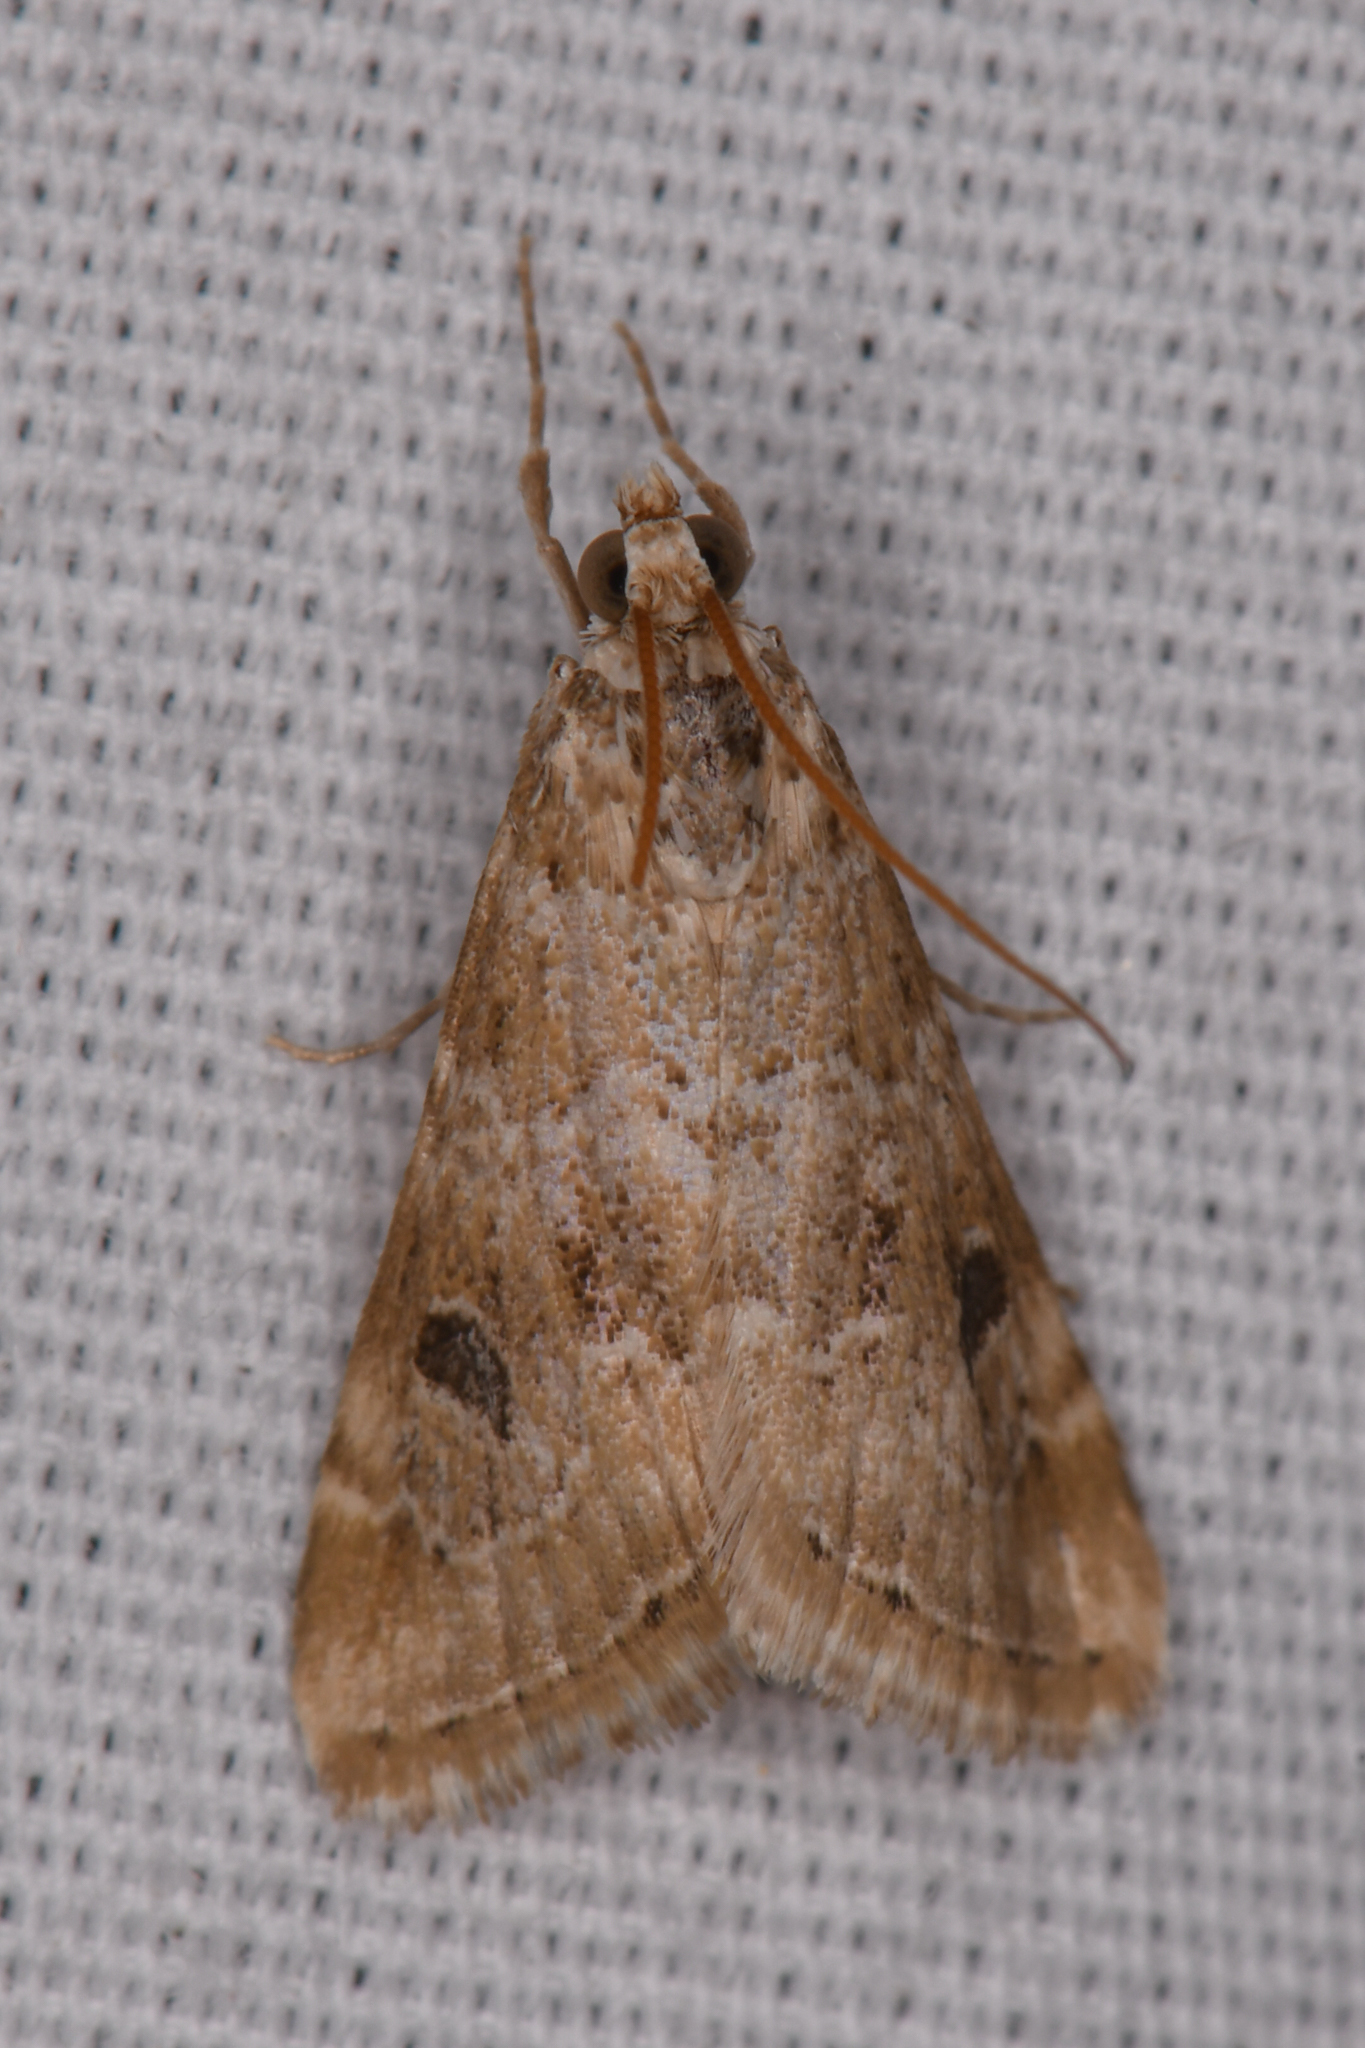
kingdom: Animalia
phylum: Arthropoda
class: Insecta
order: Lepidoptera
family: Crambidae
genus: Hellula
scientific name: Hellula rogatalis
